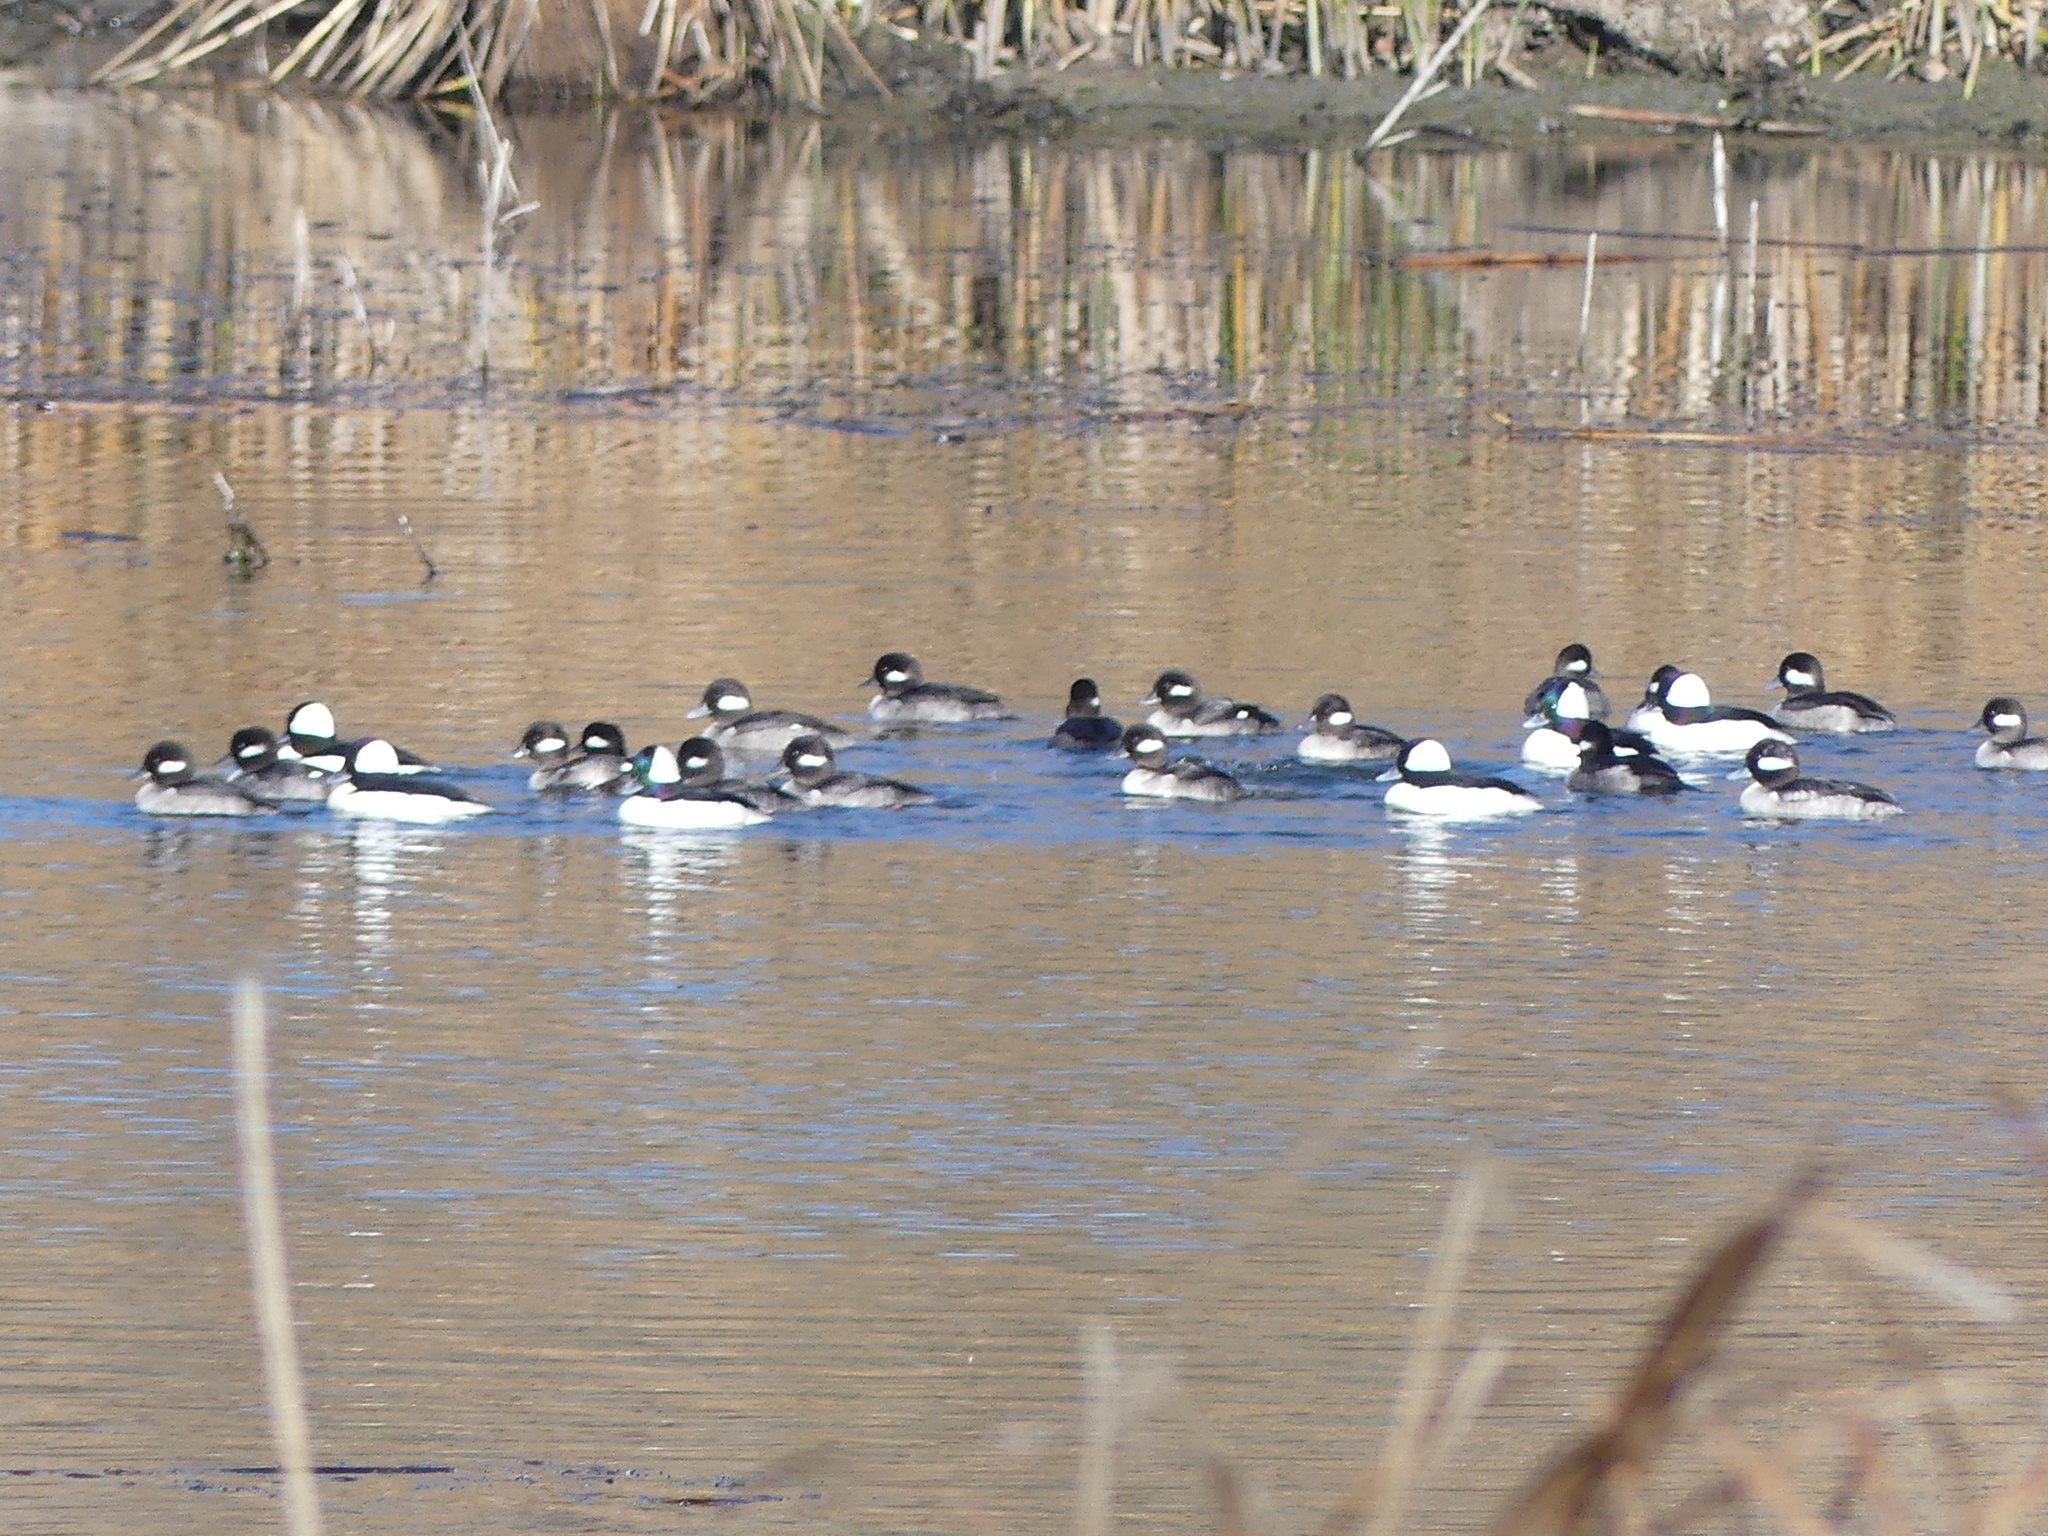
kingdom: Animalia
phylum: Chordata
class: Aves
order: Anseriformes
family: Anatidae
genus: Bucephala
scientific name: Bucephala albeola
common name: Bufflehead
